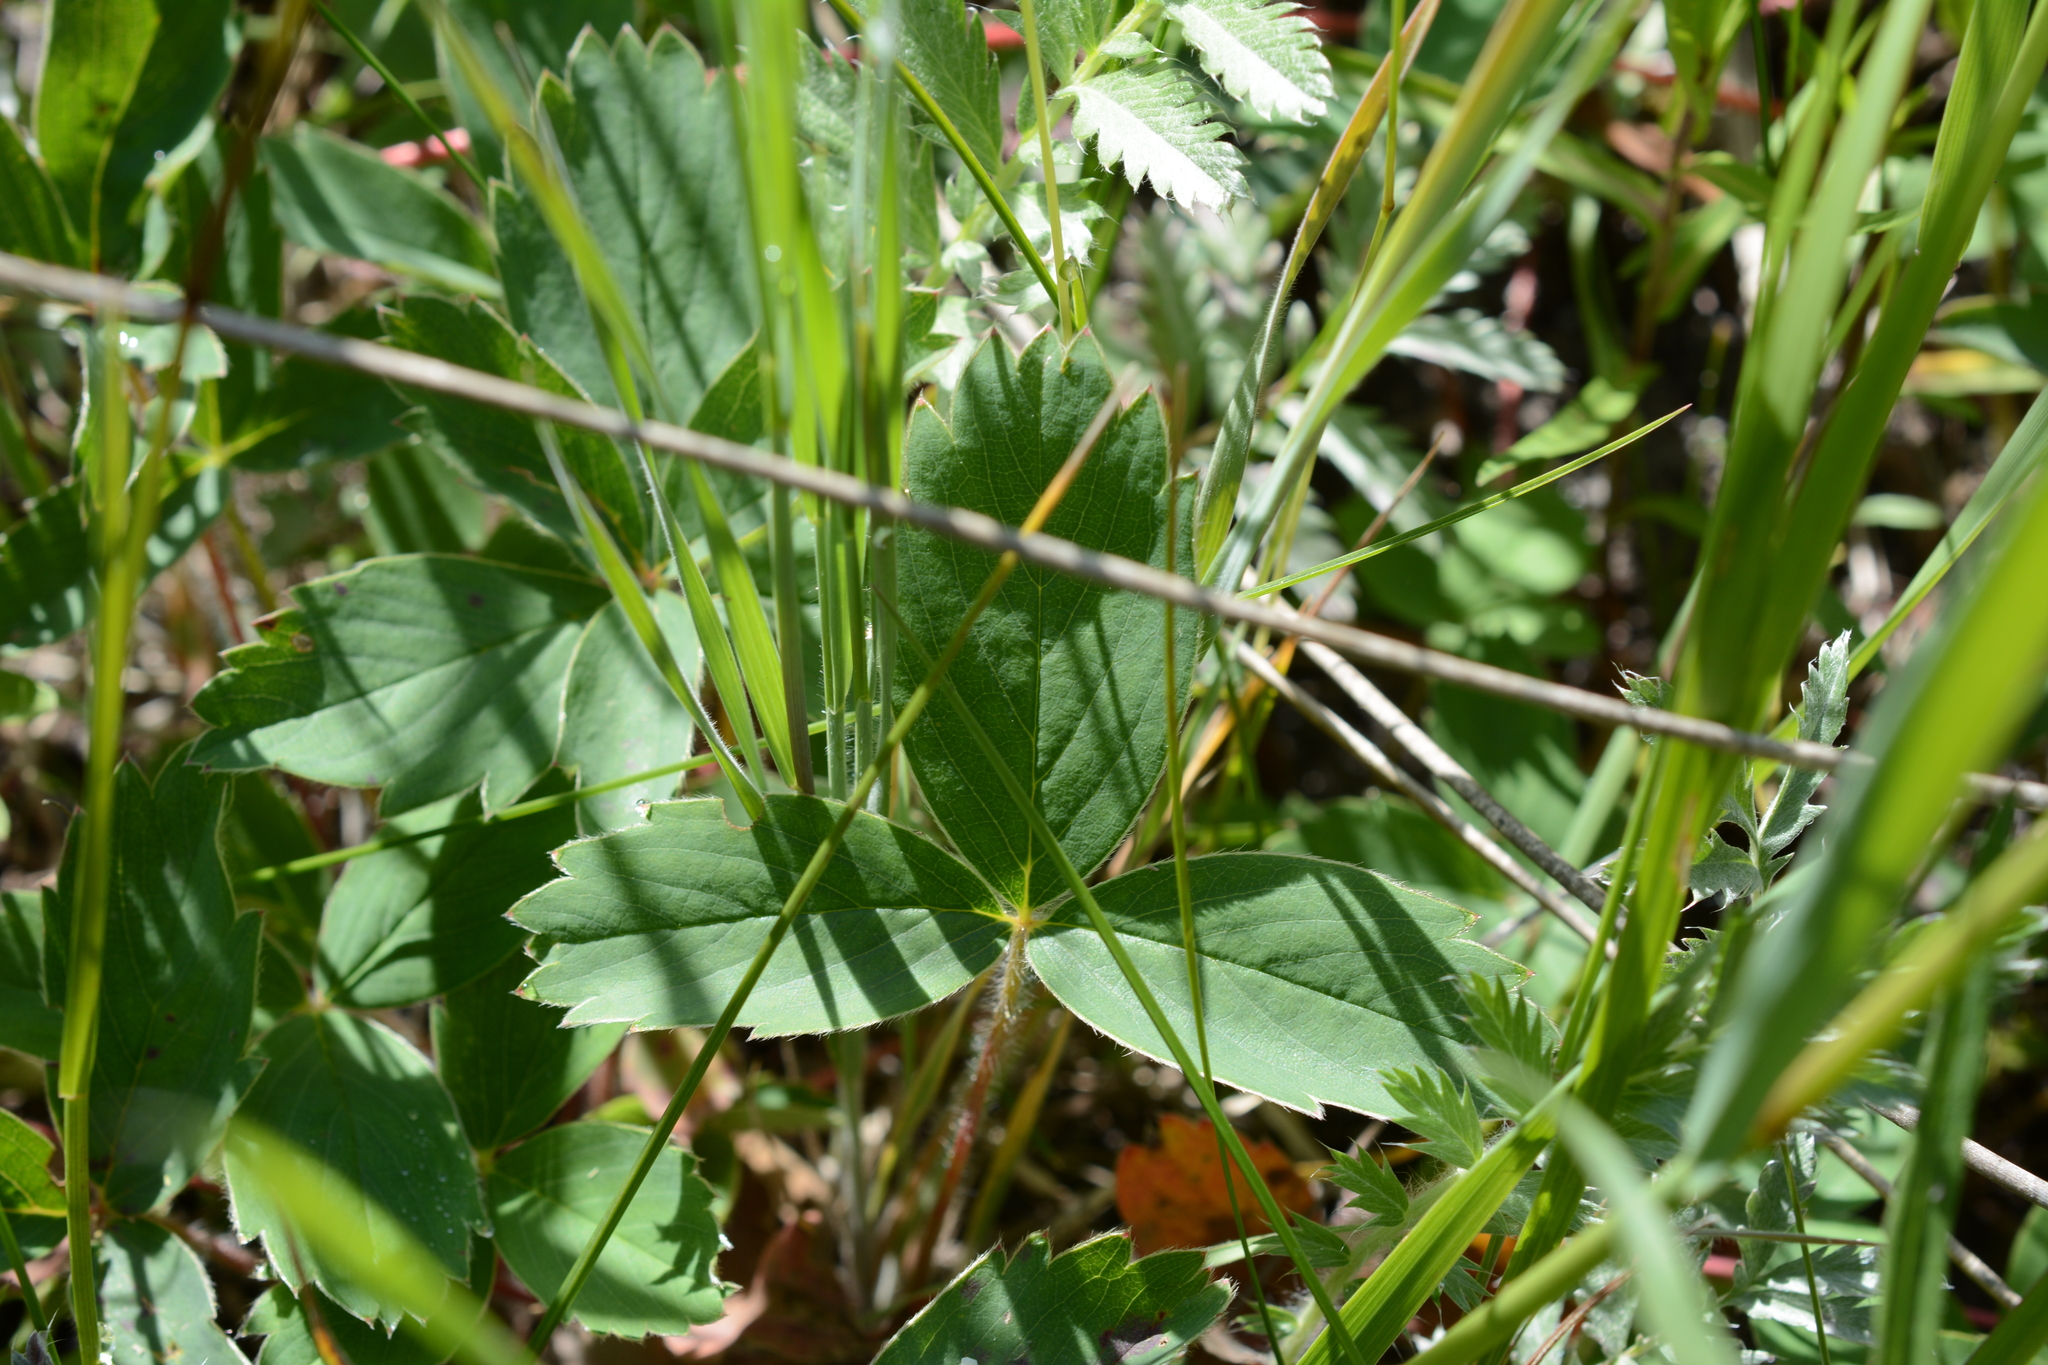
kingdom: Plantae
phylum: Tracheophyta
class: Magnoliopsida
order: Rosales
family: Rosaceae
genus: Fragaria
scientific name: Fragaria virginiana
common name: Thickleaved wild strawberry
